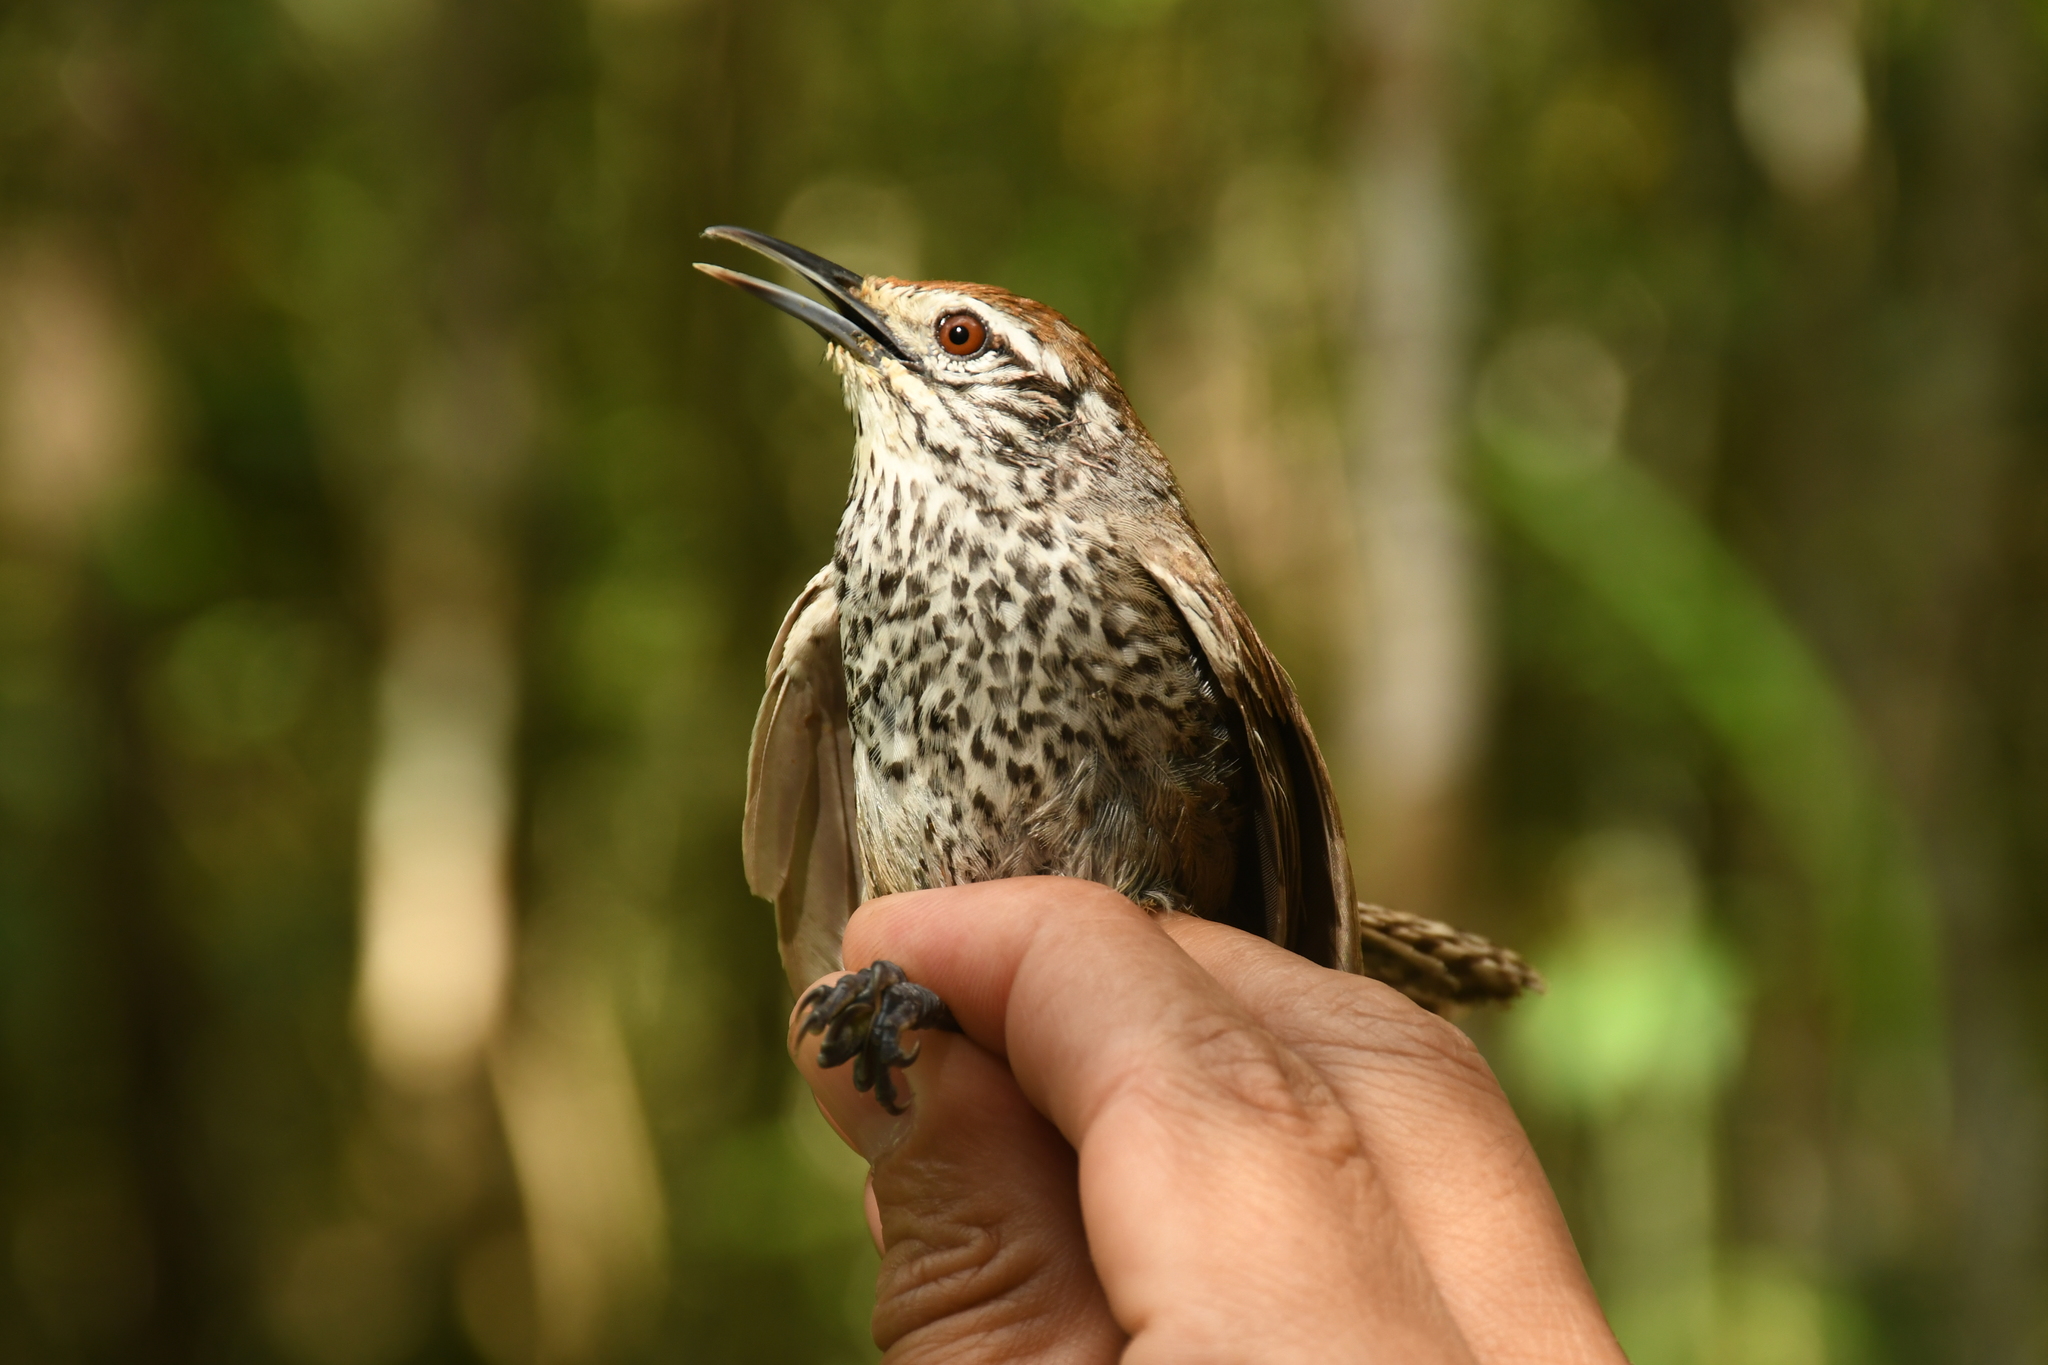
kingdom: Animalia
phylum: Chordata
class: Aves
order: Passeriformes
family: Troglodytidae
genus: Pheugopedius
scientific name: Pheugopedius maculipectus
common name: Spot-breasted wren
